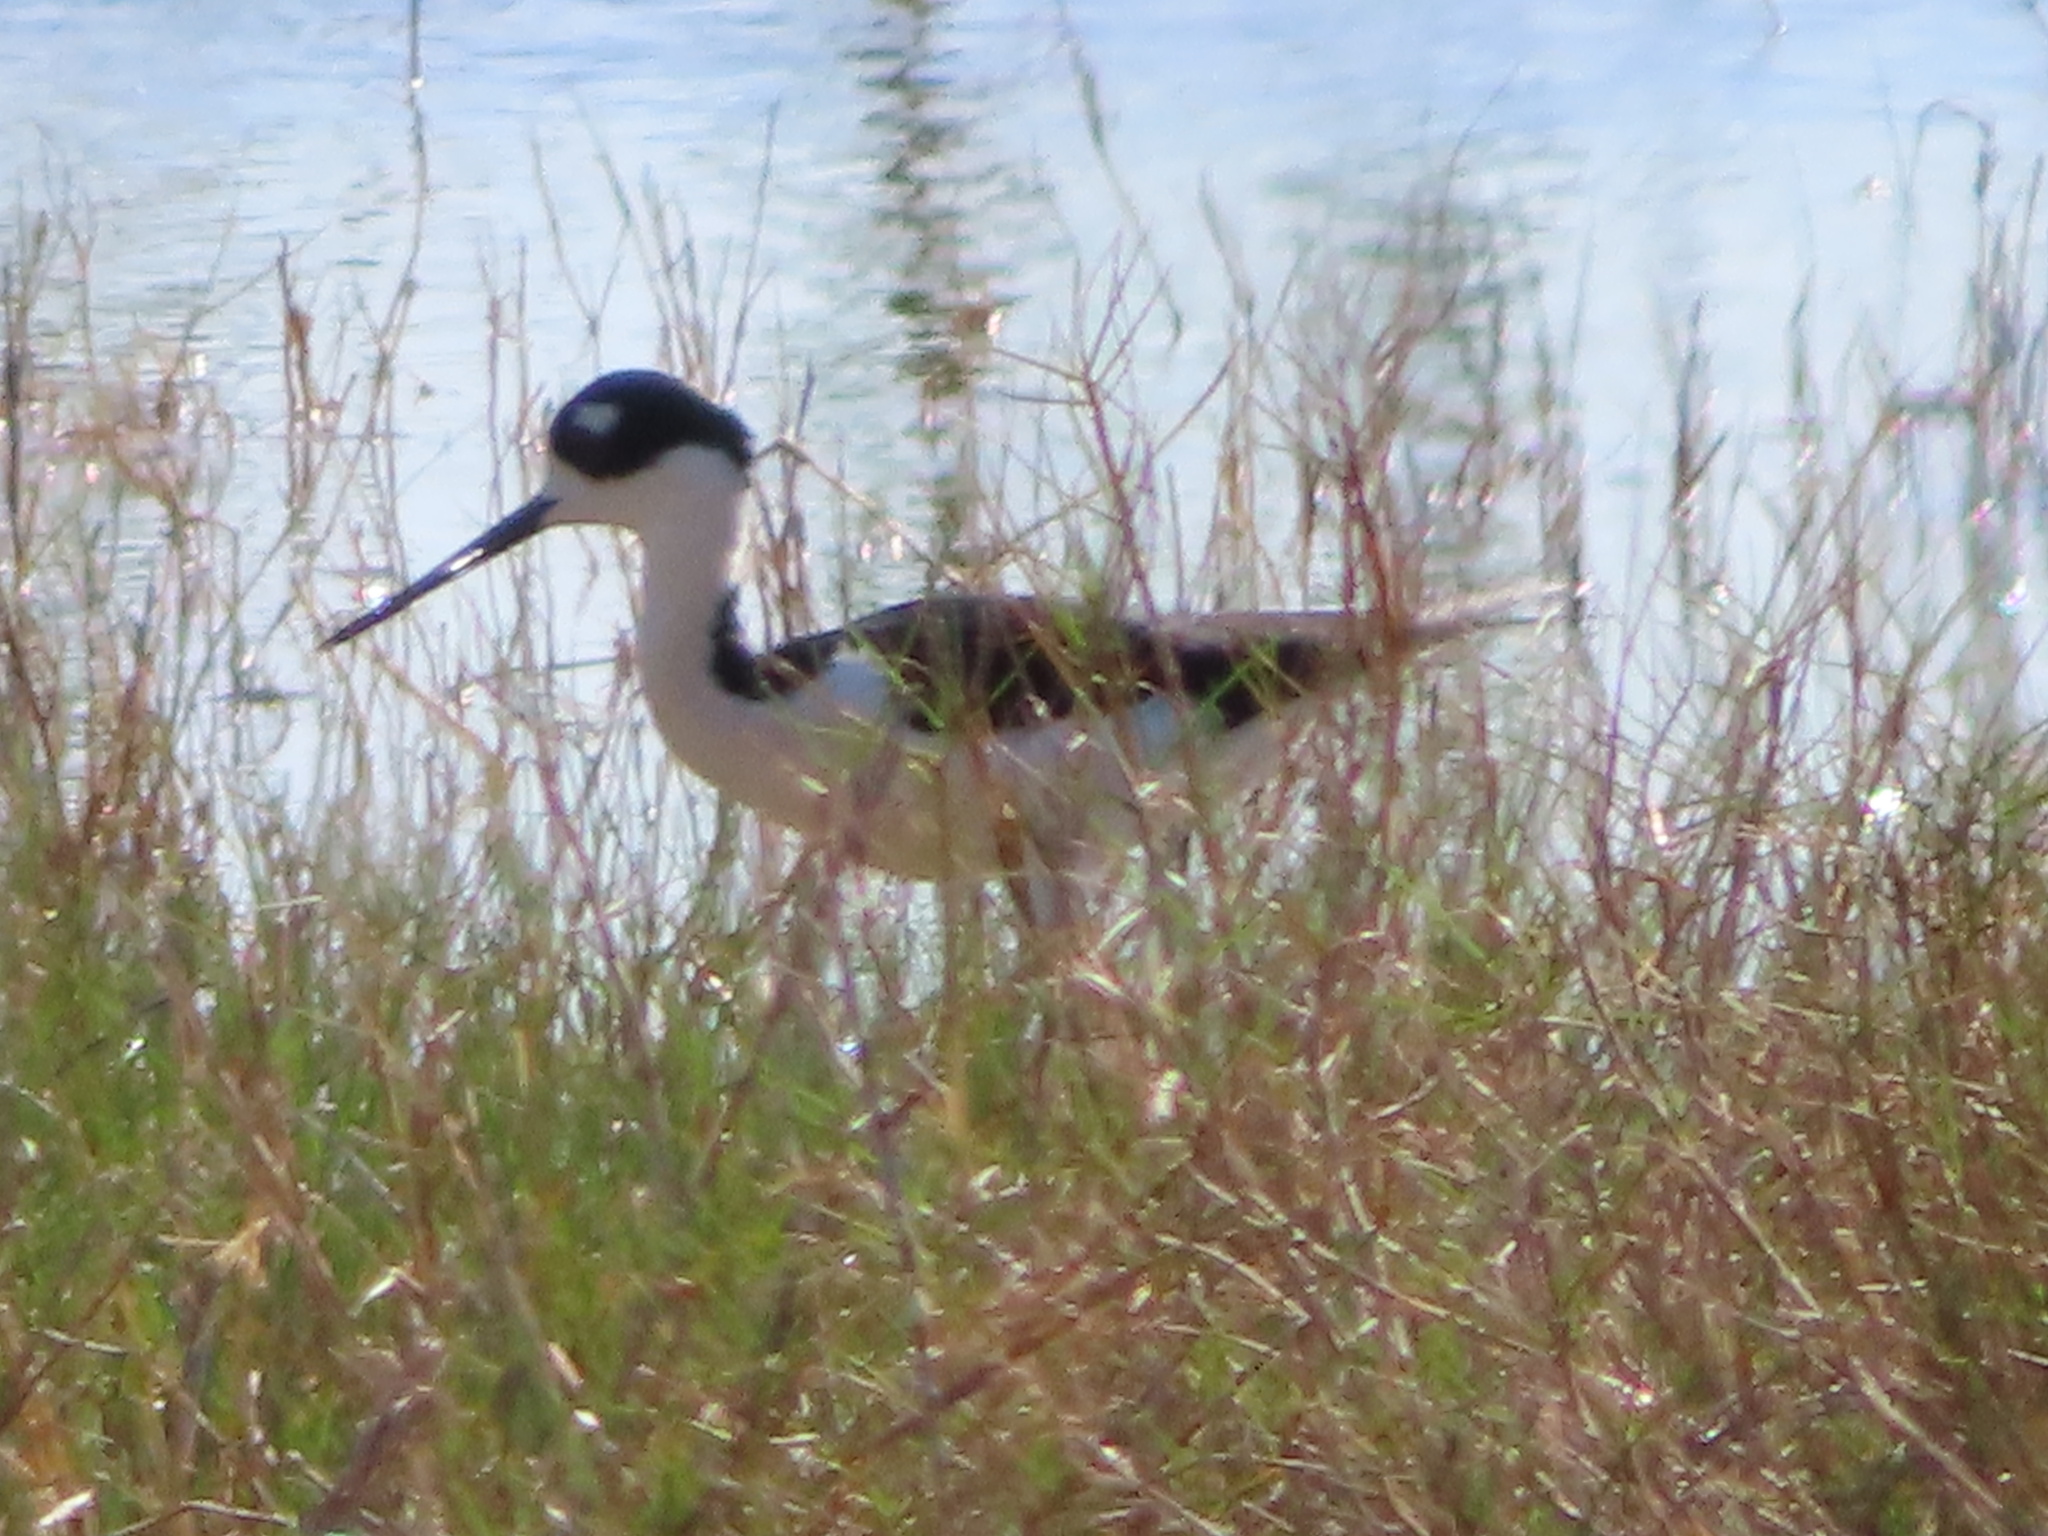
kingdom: Animalia
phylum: Chordata
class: Aves
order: Charadriiformes
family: Recurvirostridae
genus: Himantopus
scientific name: Himantopus mexicanus
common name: Black-necked stilt
